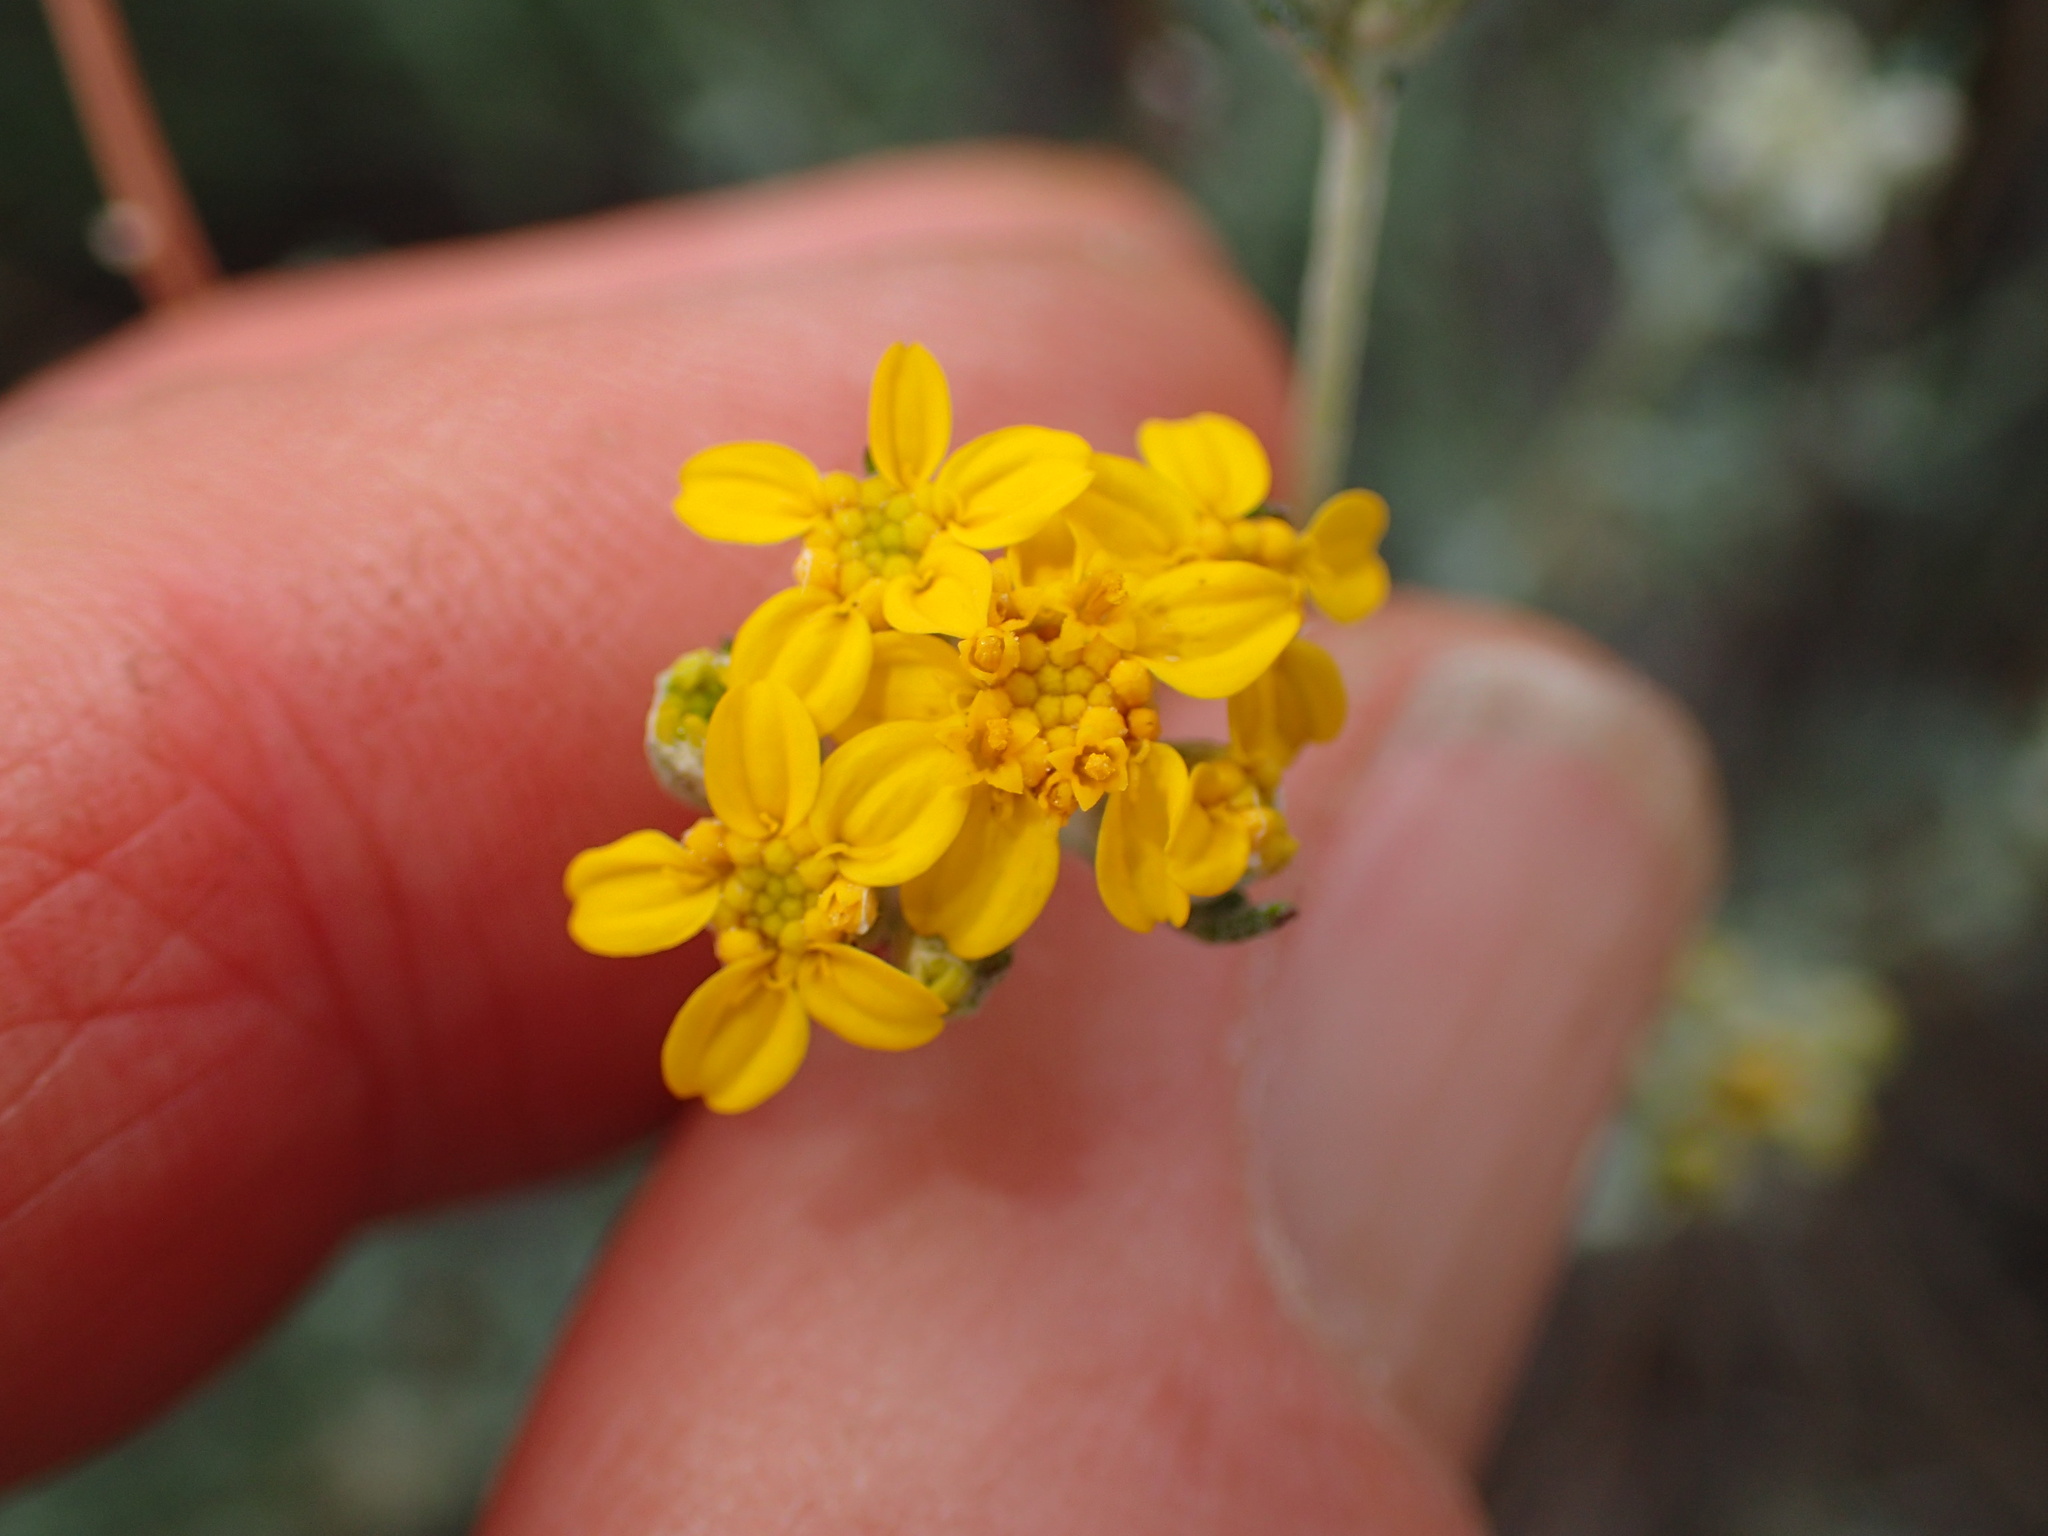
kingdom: Plantae
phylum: Tracheophyta
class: Magnoliopsida
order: Asterales
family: Asteraceae
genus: Eriophyllum
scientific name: Eriophyllum confertiflorum
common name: Golden-yarrow
